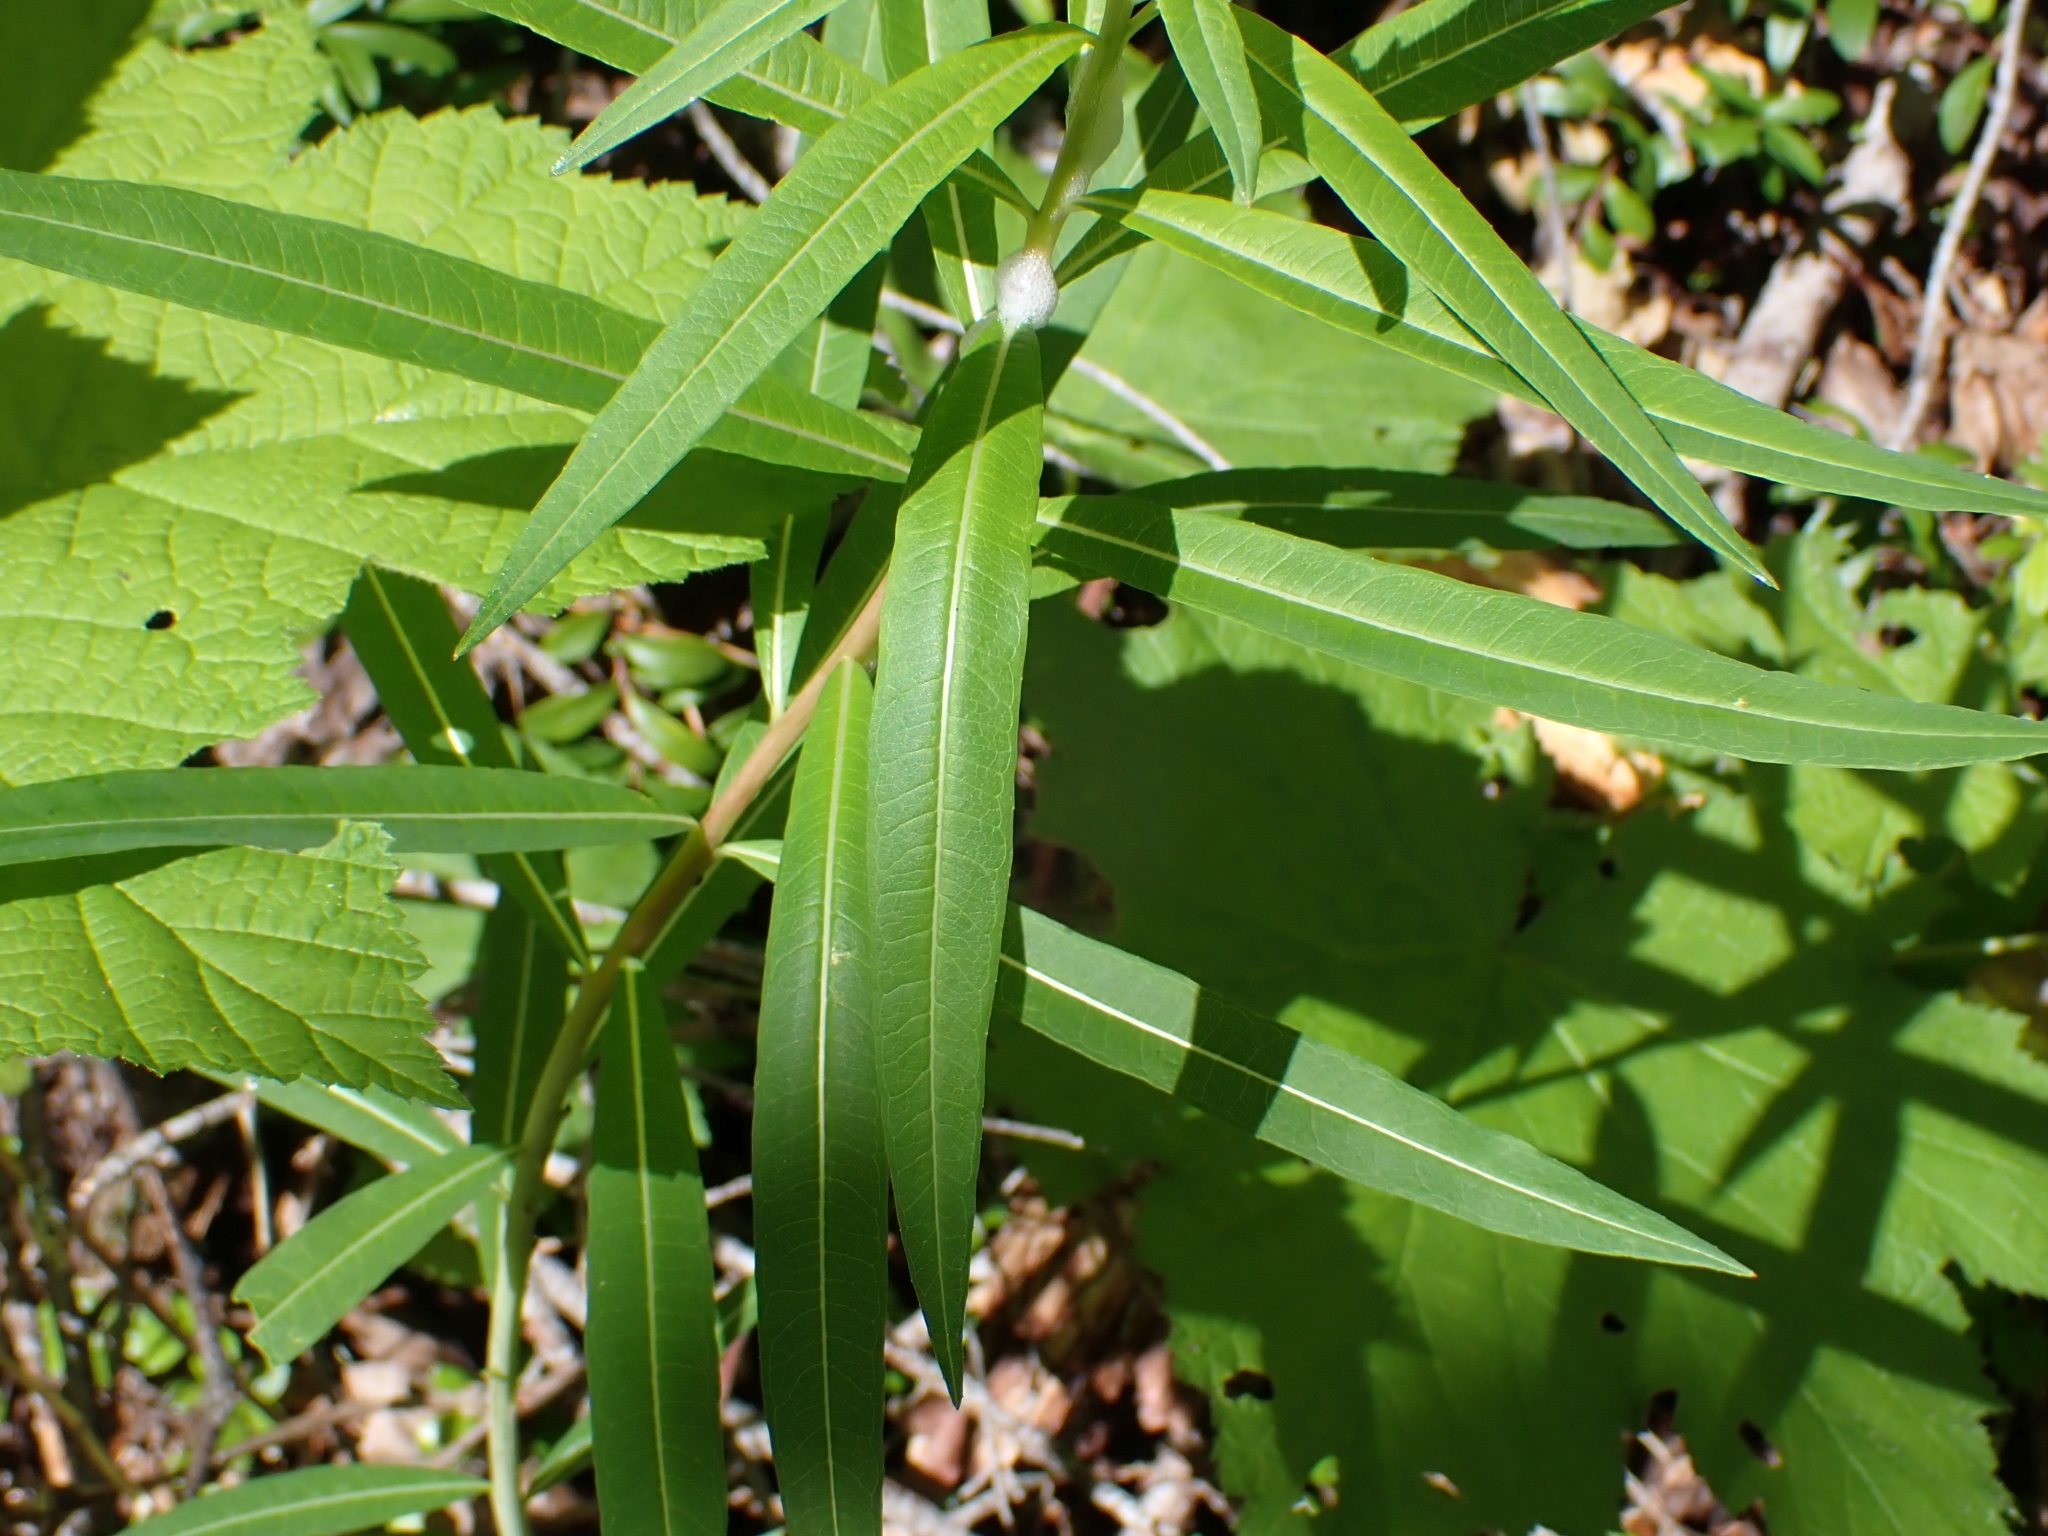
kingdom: Plantae
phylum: Tracheophyta
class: Magnoliopsida
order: Myrtales
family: Onagraceae
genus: Chamaenerion
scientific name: Chamaenerion angustifolium
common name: Fireweed
